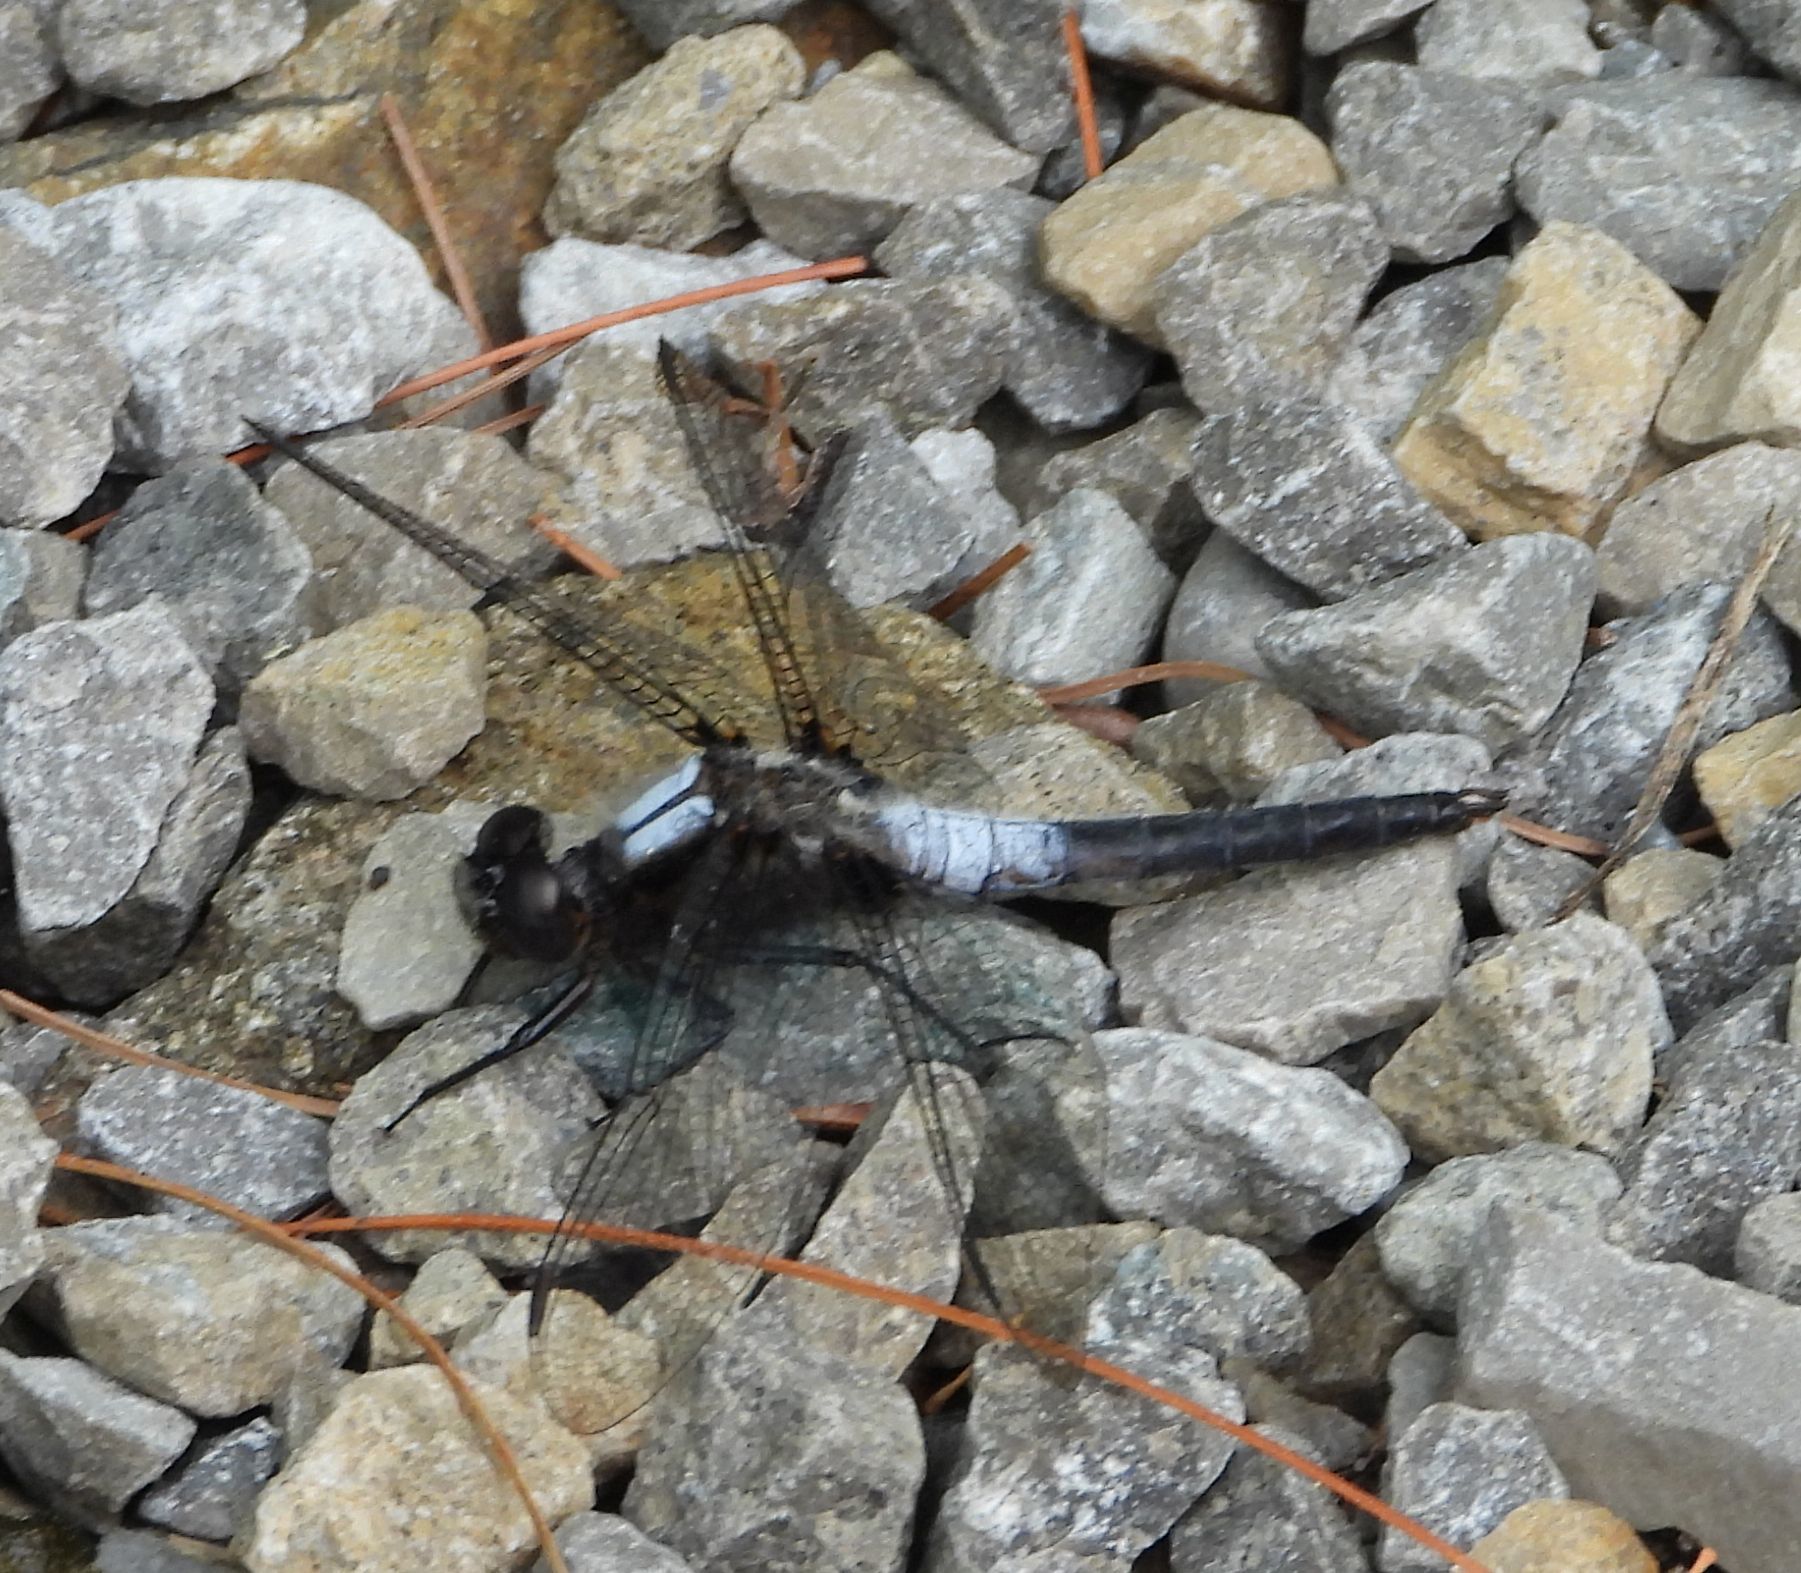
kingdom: Animalia
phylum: Arthropoda
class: Insecta
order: Odonata
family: Libellulidae
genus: Ladona
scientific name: Ladona julia
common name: Chalk-fronted corporal
